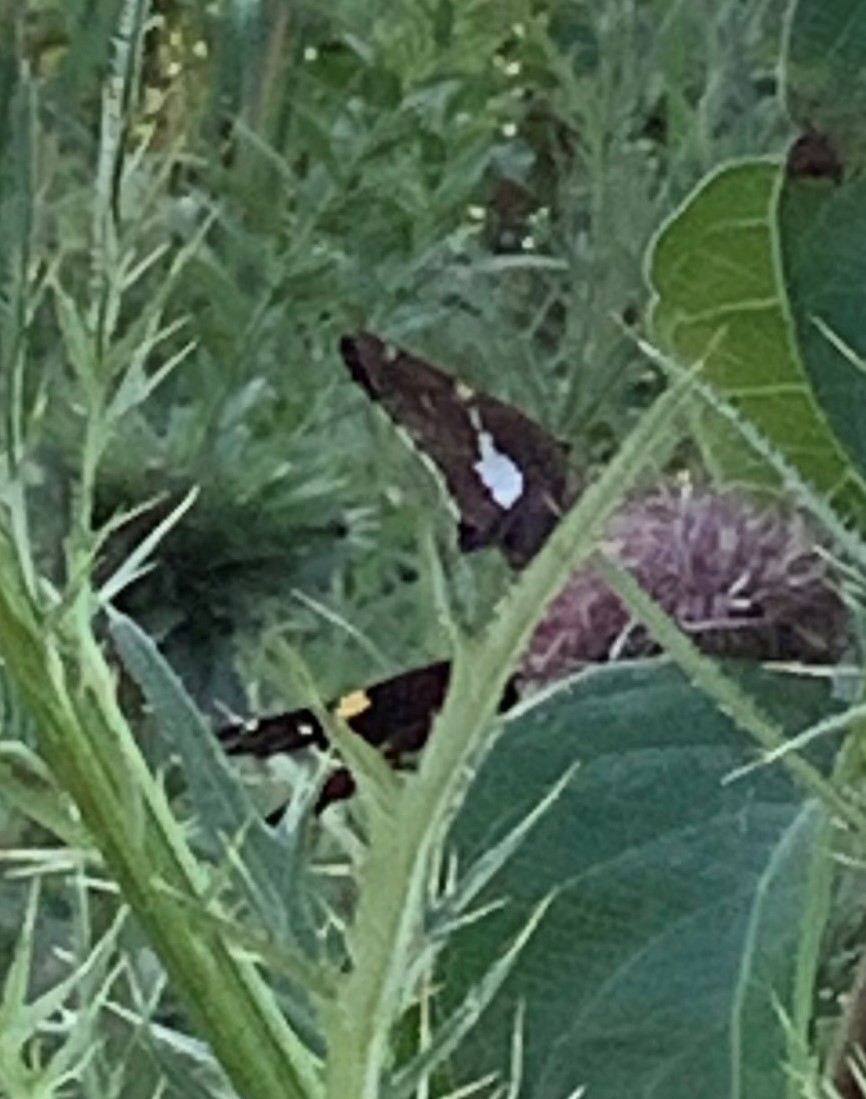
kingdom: Animalia
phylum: Arthropoda
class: Insecta
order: Lepidoptera
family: Hesperiidae
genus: Epargyreus
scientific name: Epargyreus clarus
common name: Silver-spotted skipper
